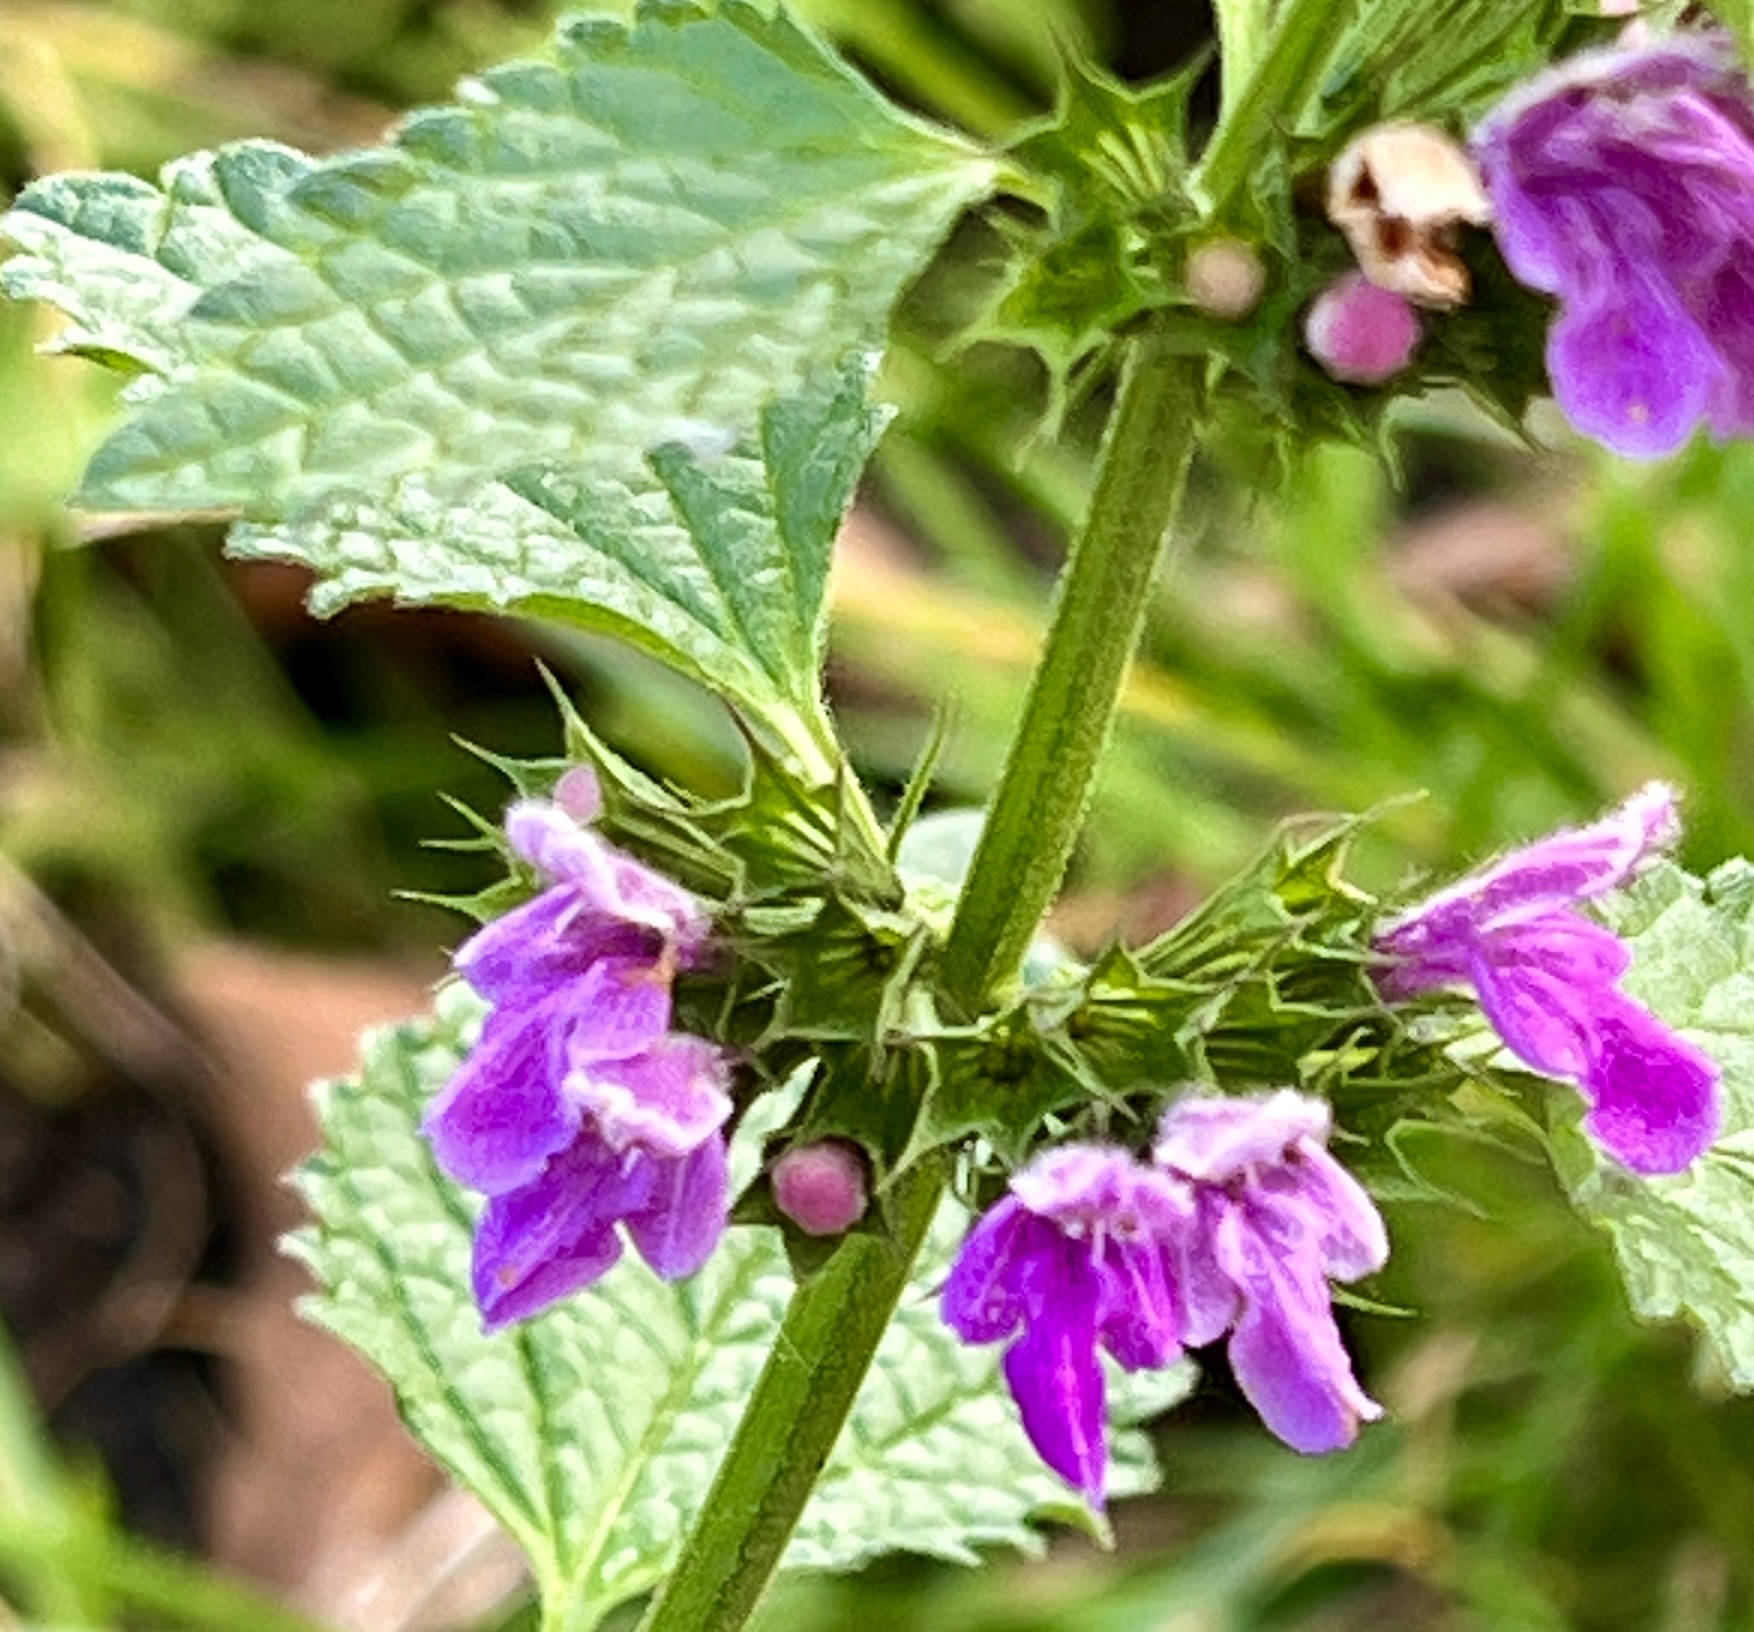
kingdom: Plantae
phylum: Tracheophyta
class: Magnoliopsida
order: Lamiales
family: Lamiaceae
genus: Ballota
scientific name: Ballota nigra
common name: Black horehound
